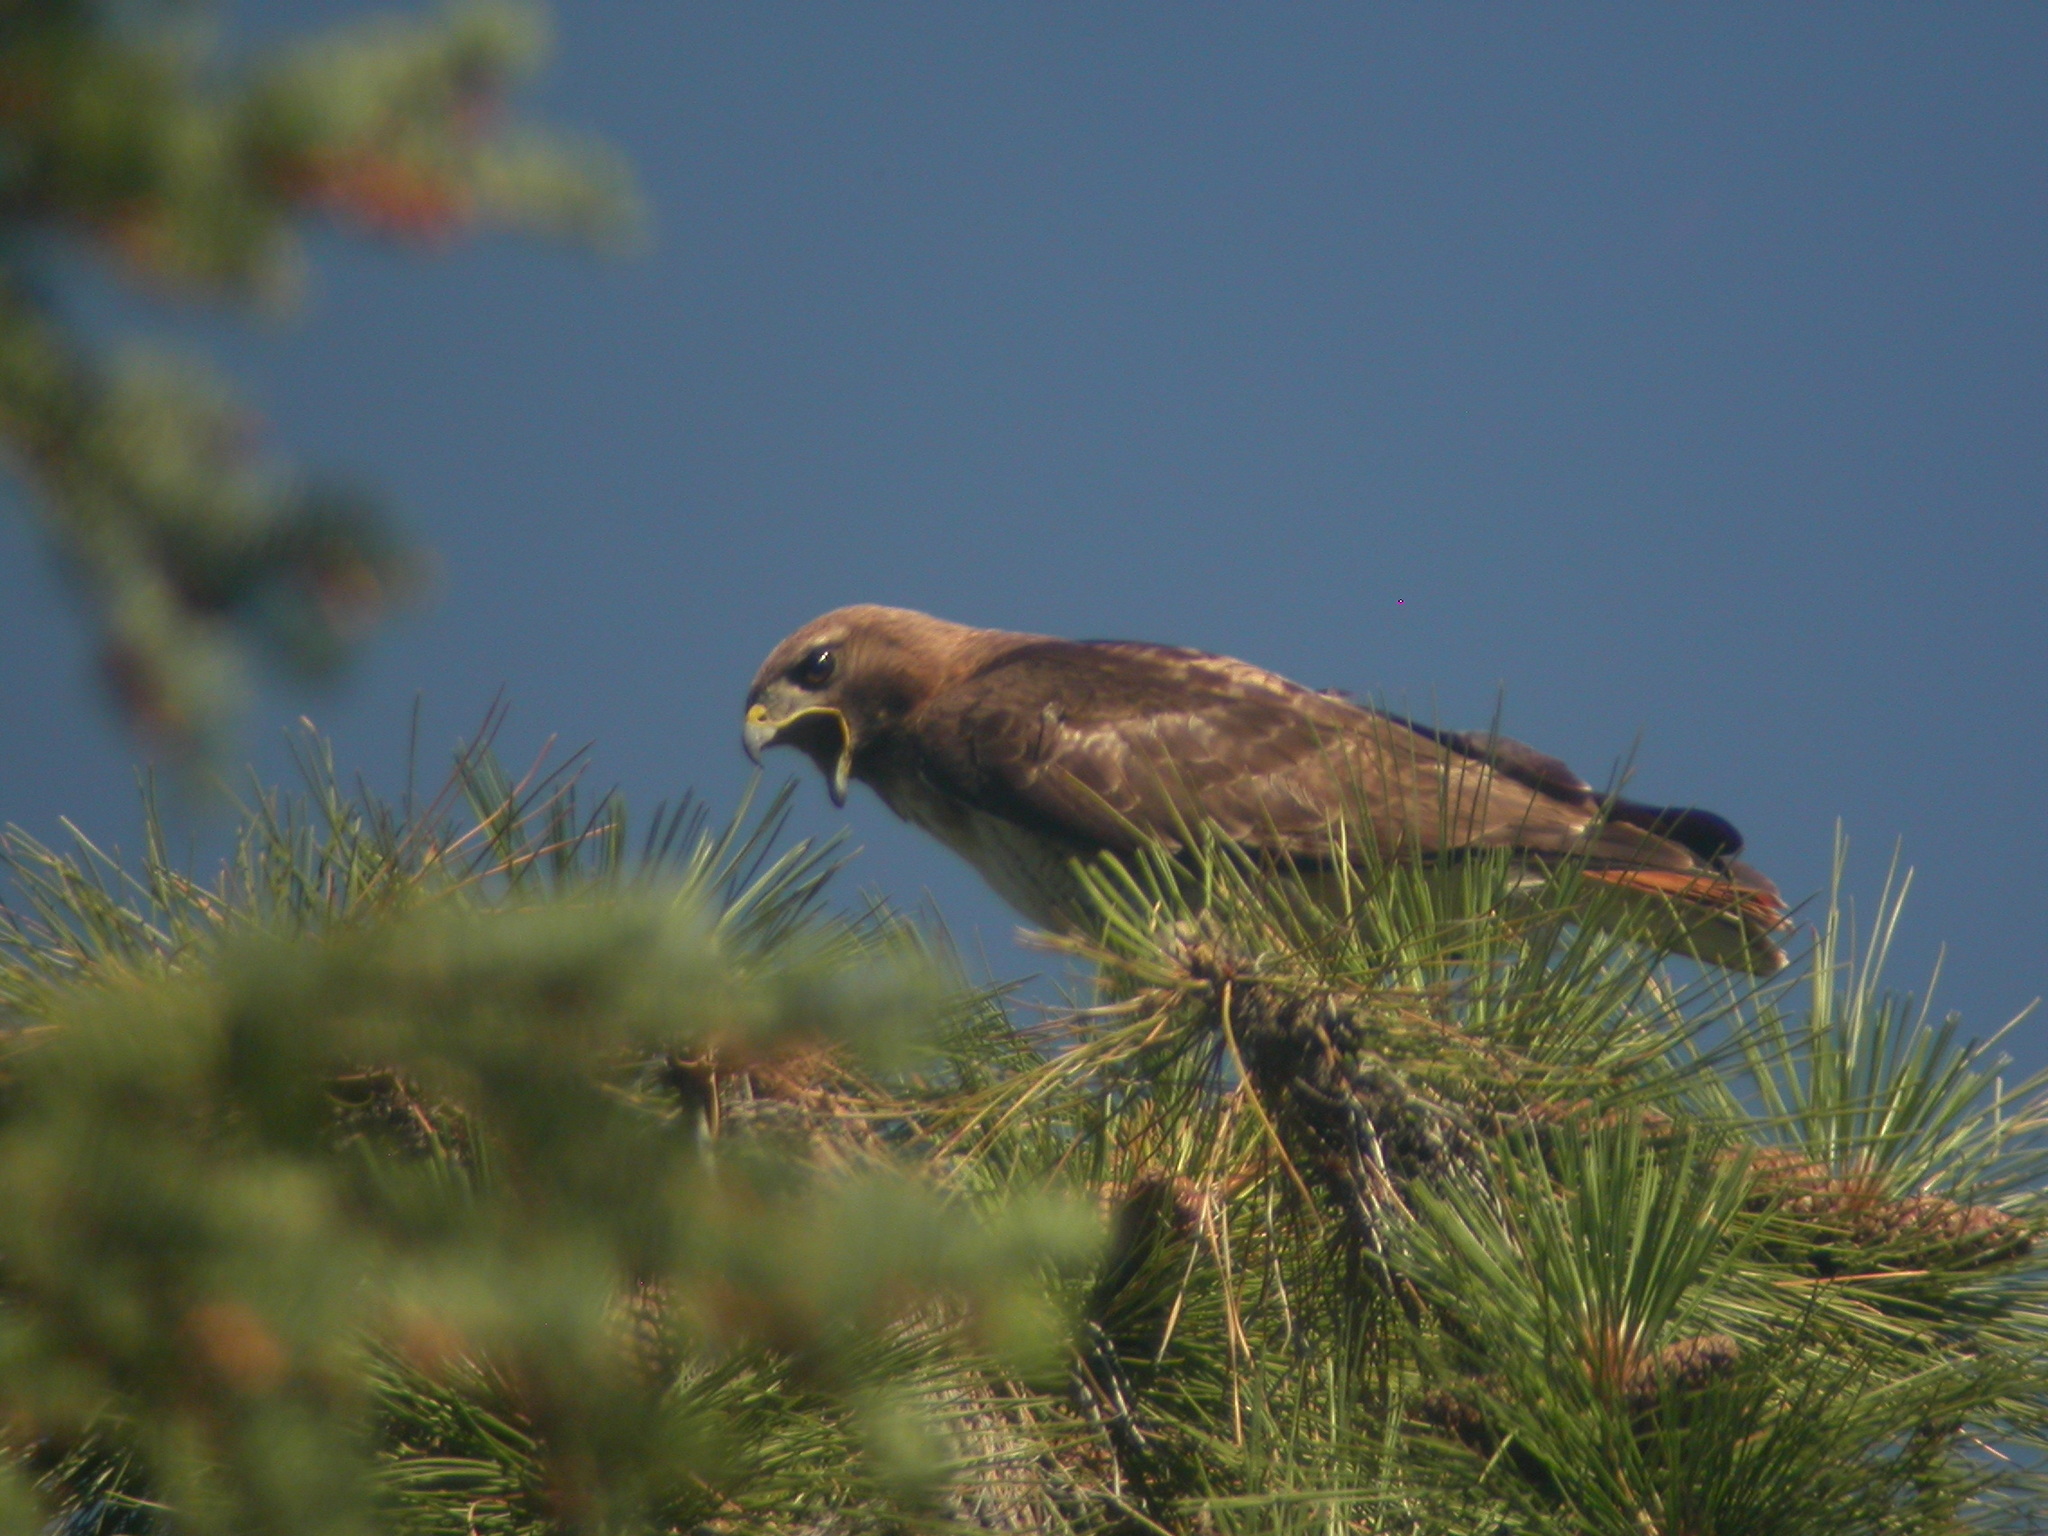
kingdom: Animalia
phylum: Chordata
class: Aves
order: Accipitriformes
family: Accipitridae
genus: Buteo
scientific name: Buteo jamaicensis
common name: Red-tailed hawk
